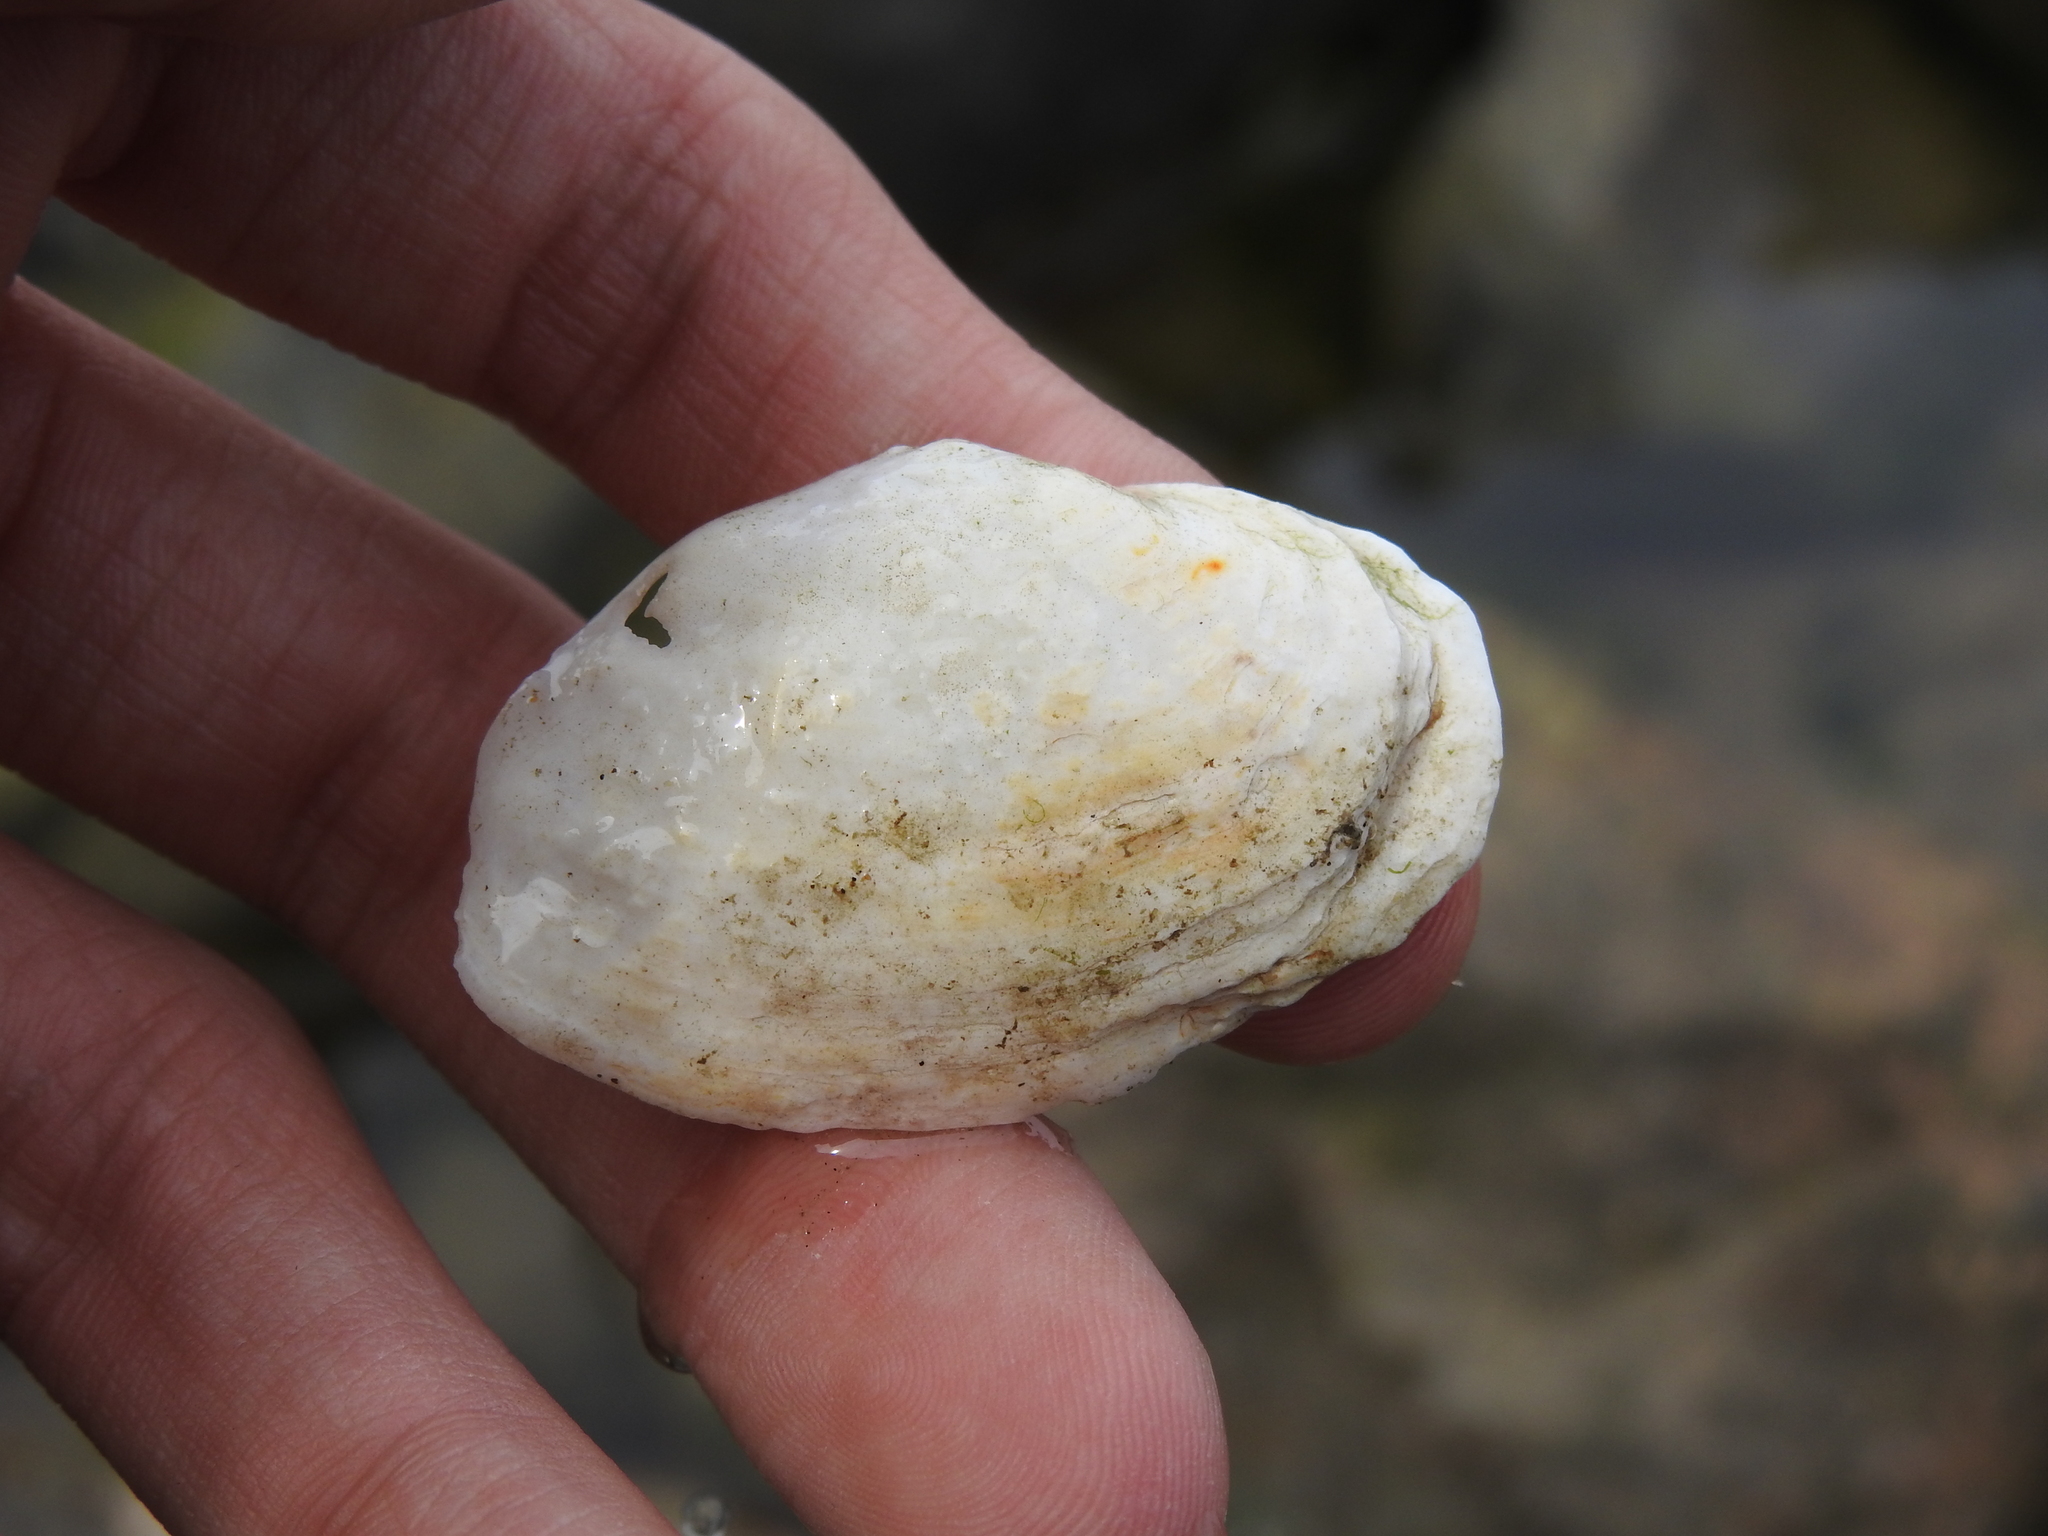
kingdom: Animalia
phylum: Mollusca
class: Bivalvia
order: Myida
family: Myidae
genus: Mya
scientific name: Mya arenaria
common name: Soft-shelled clam
